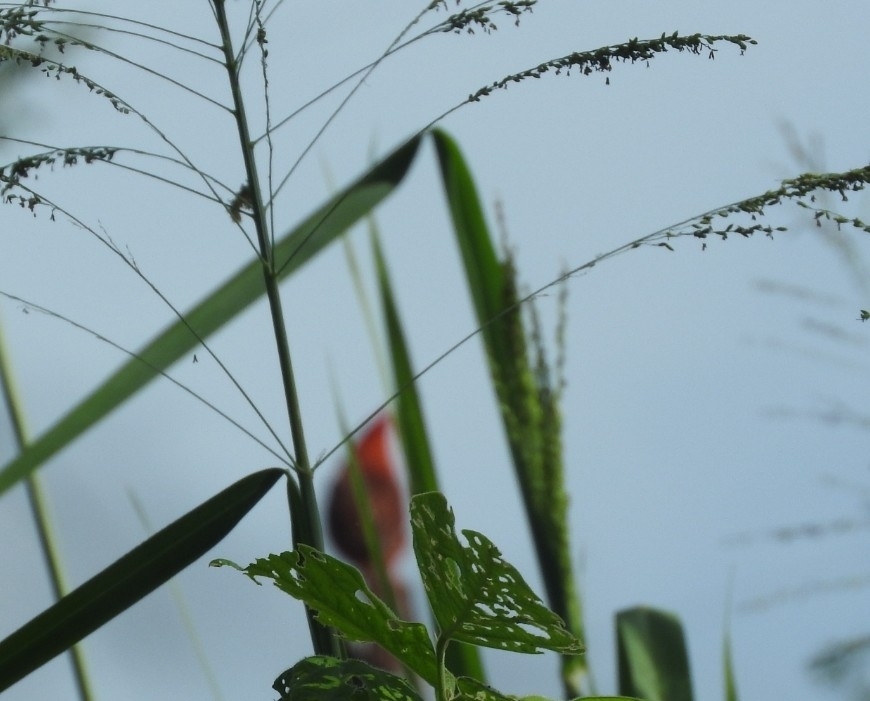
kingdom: Animalia
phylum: Chordata
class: Aves
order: Passeriformes
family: Cardinalidae
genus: Cardinalis
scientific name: Cardinalis cardinalis
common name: Northern cardinal
